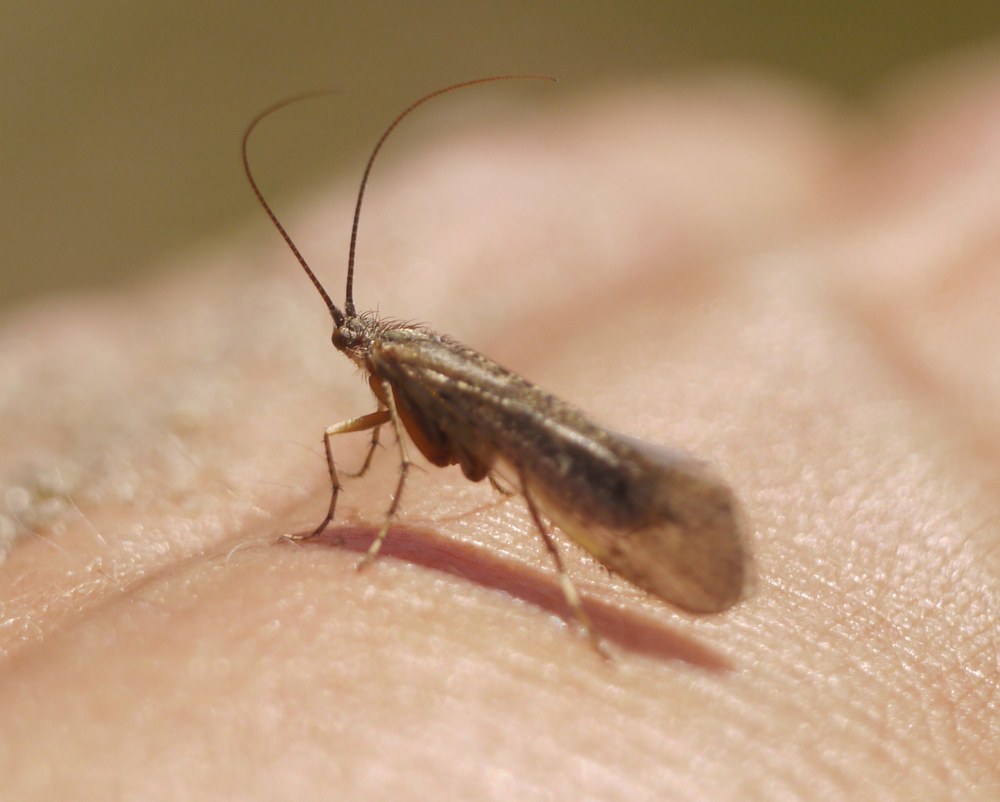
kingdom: Animalia
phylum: Arthropoda
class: Insecta
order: Trichoptera
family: Limnephilidae
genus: Limnephilus
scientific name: Limnephilus affinis
